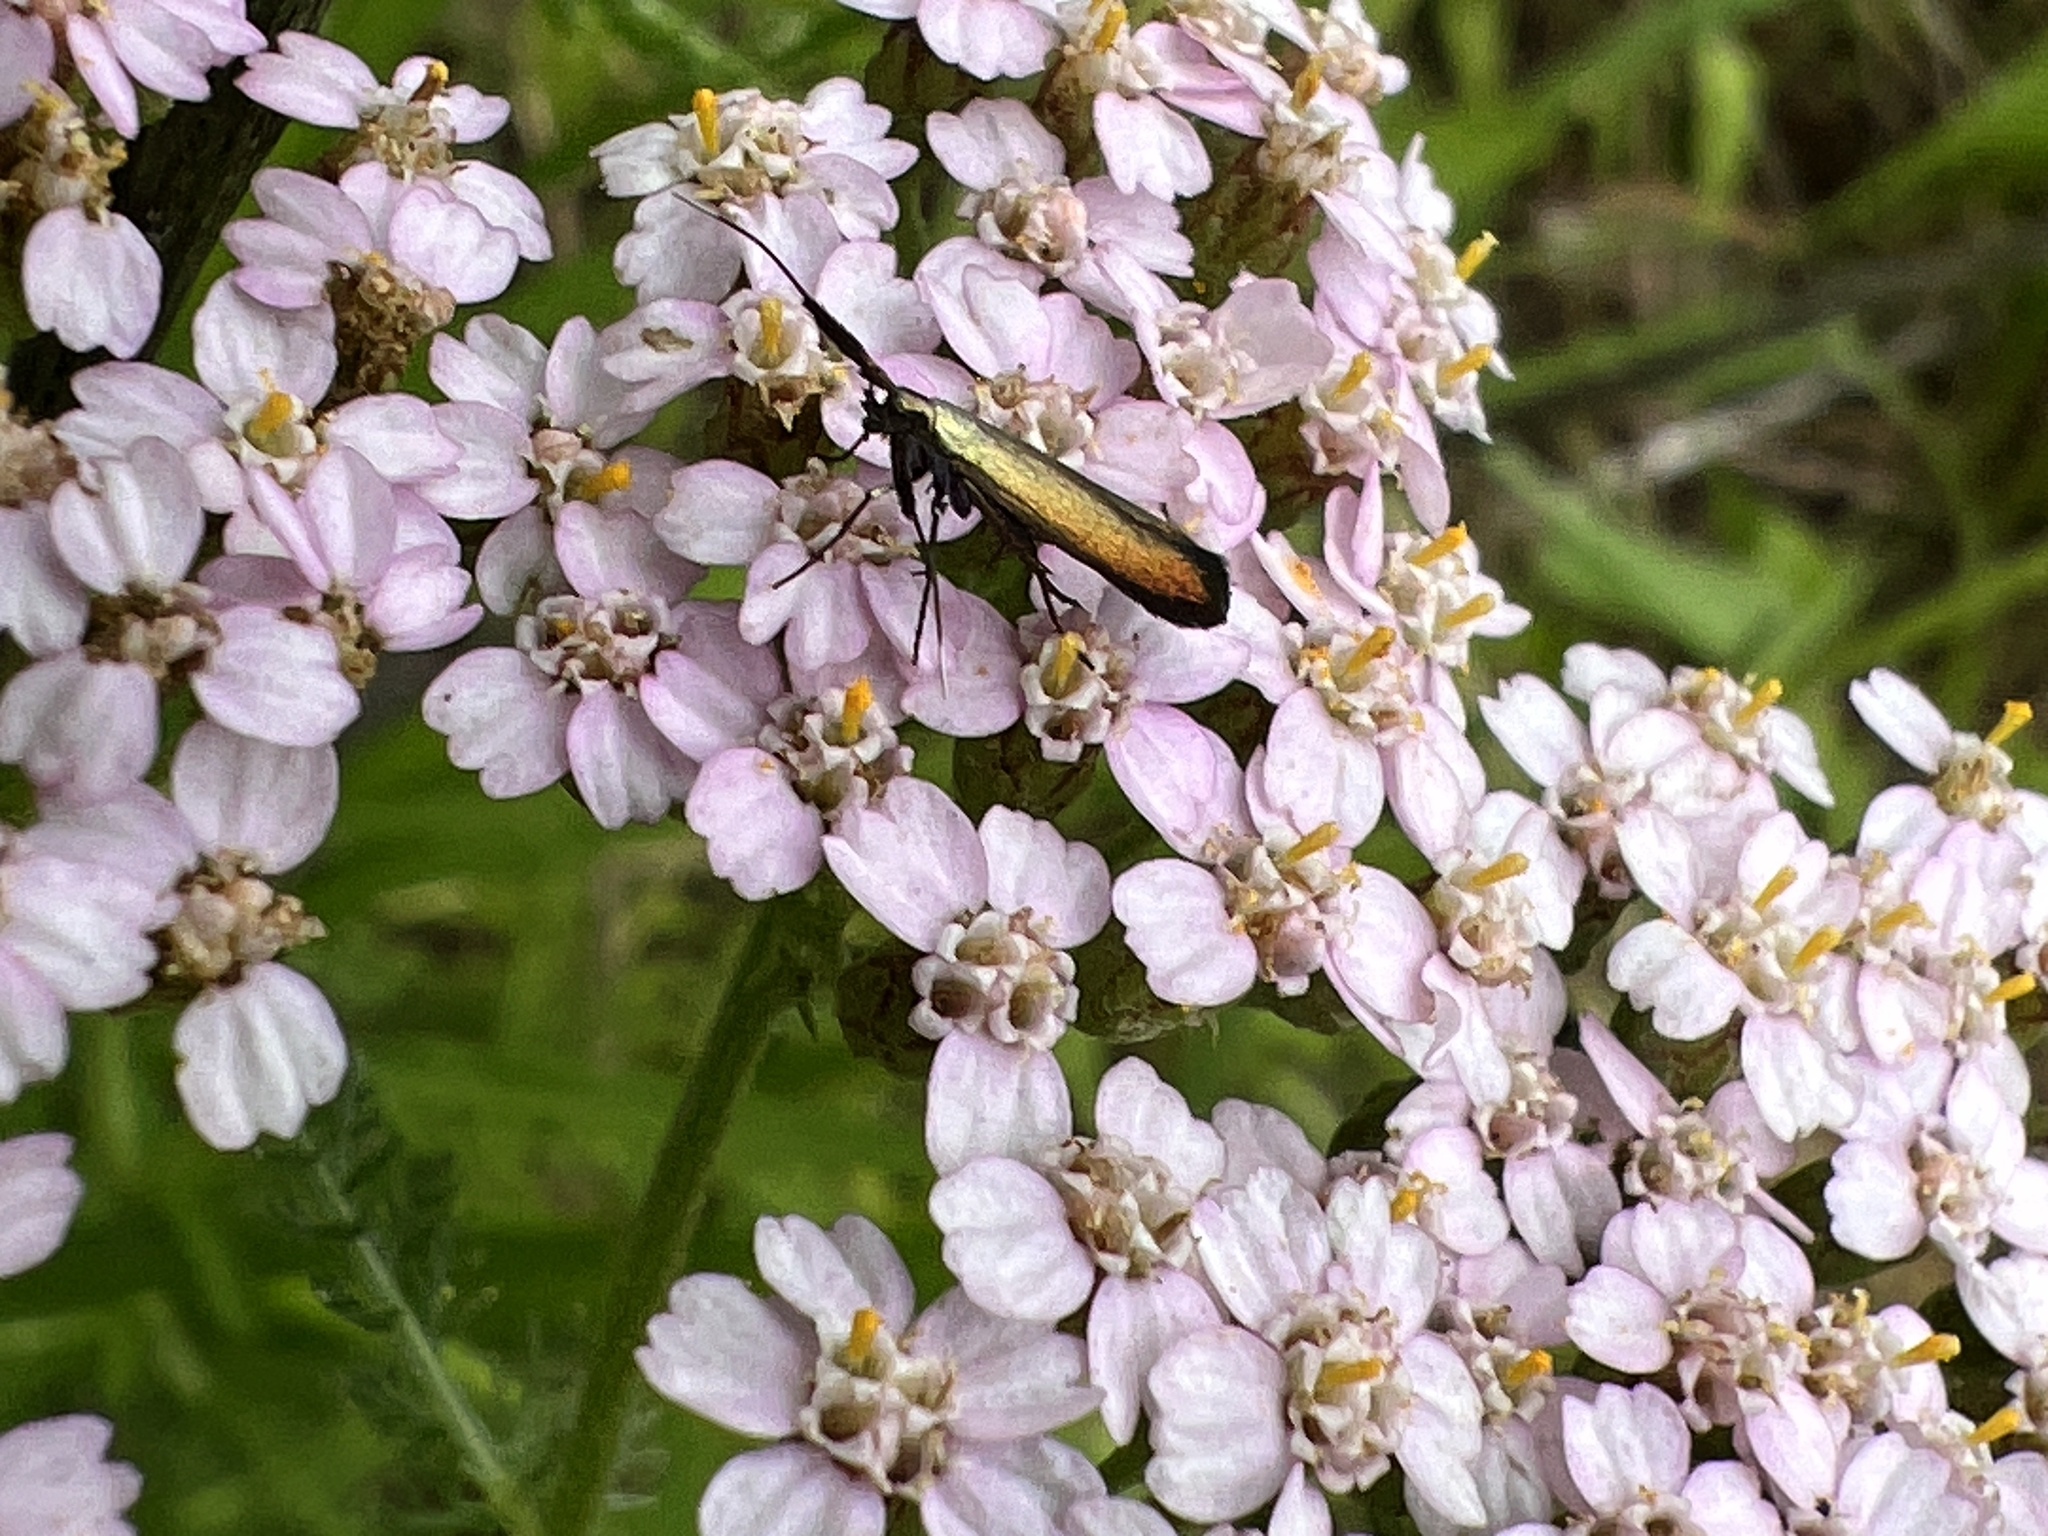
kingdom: Animalia
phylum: Arthropoda
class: Insecta
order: Lepidoptera
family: Coleophoridae
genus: Coleophora
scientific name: Coleophora deauratella
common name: Red-clover case-bearer
